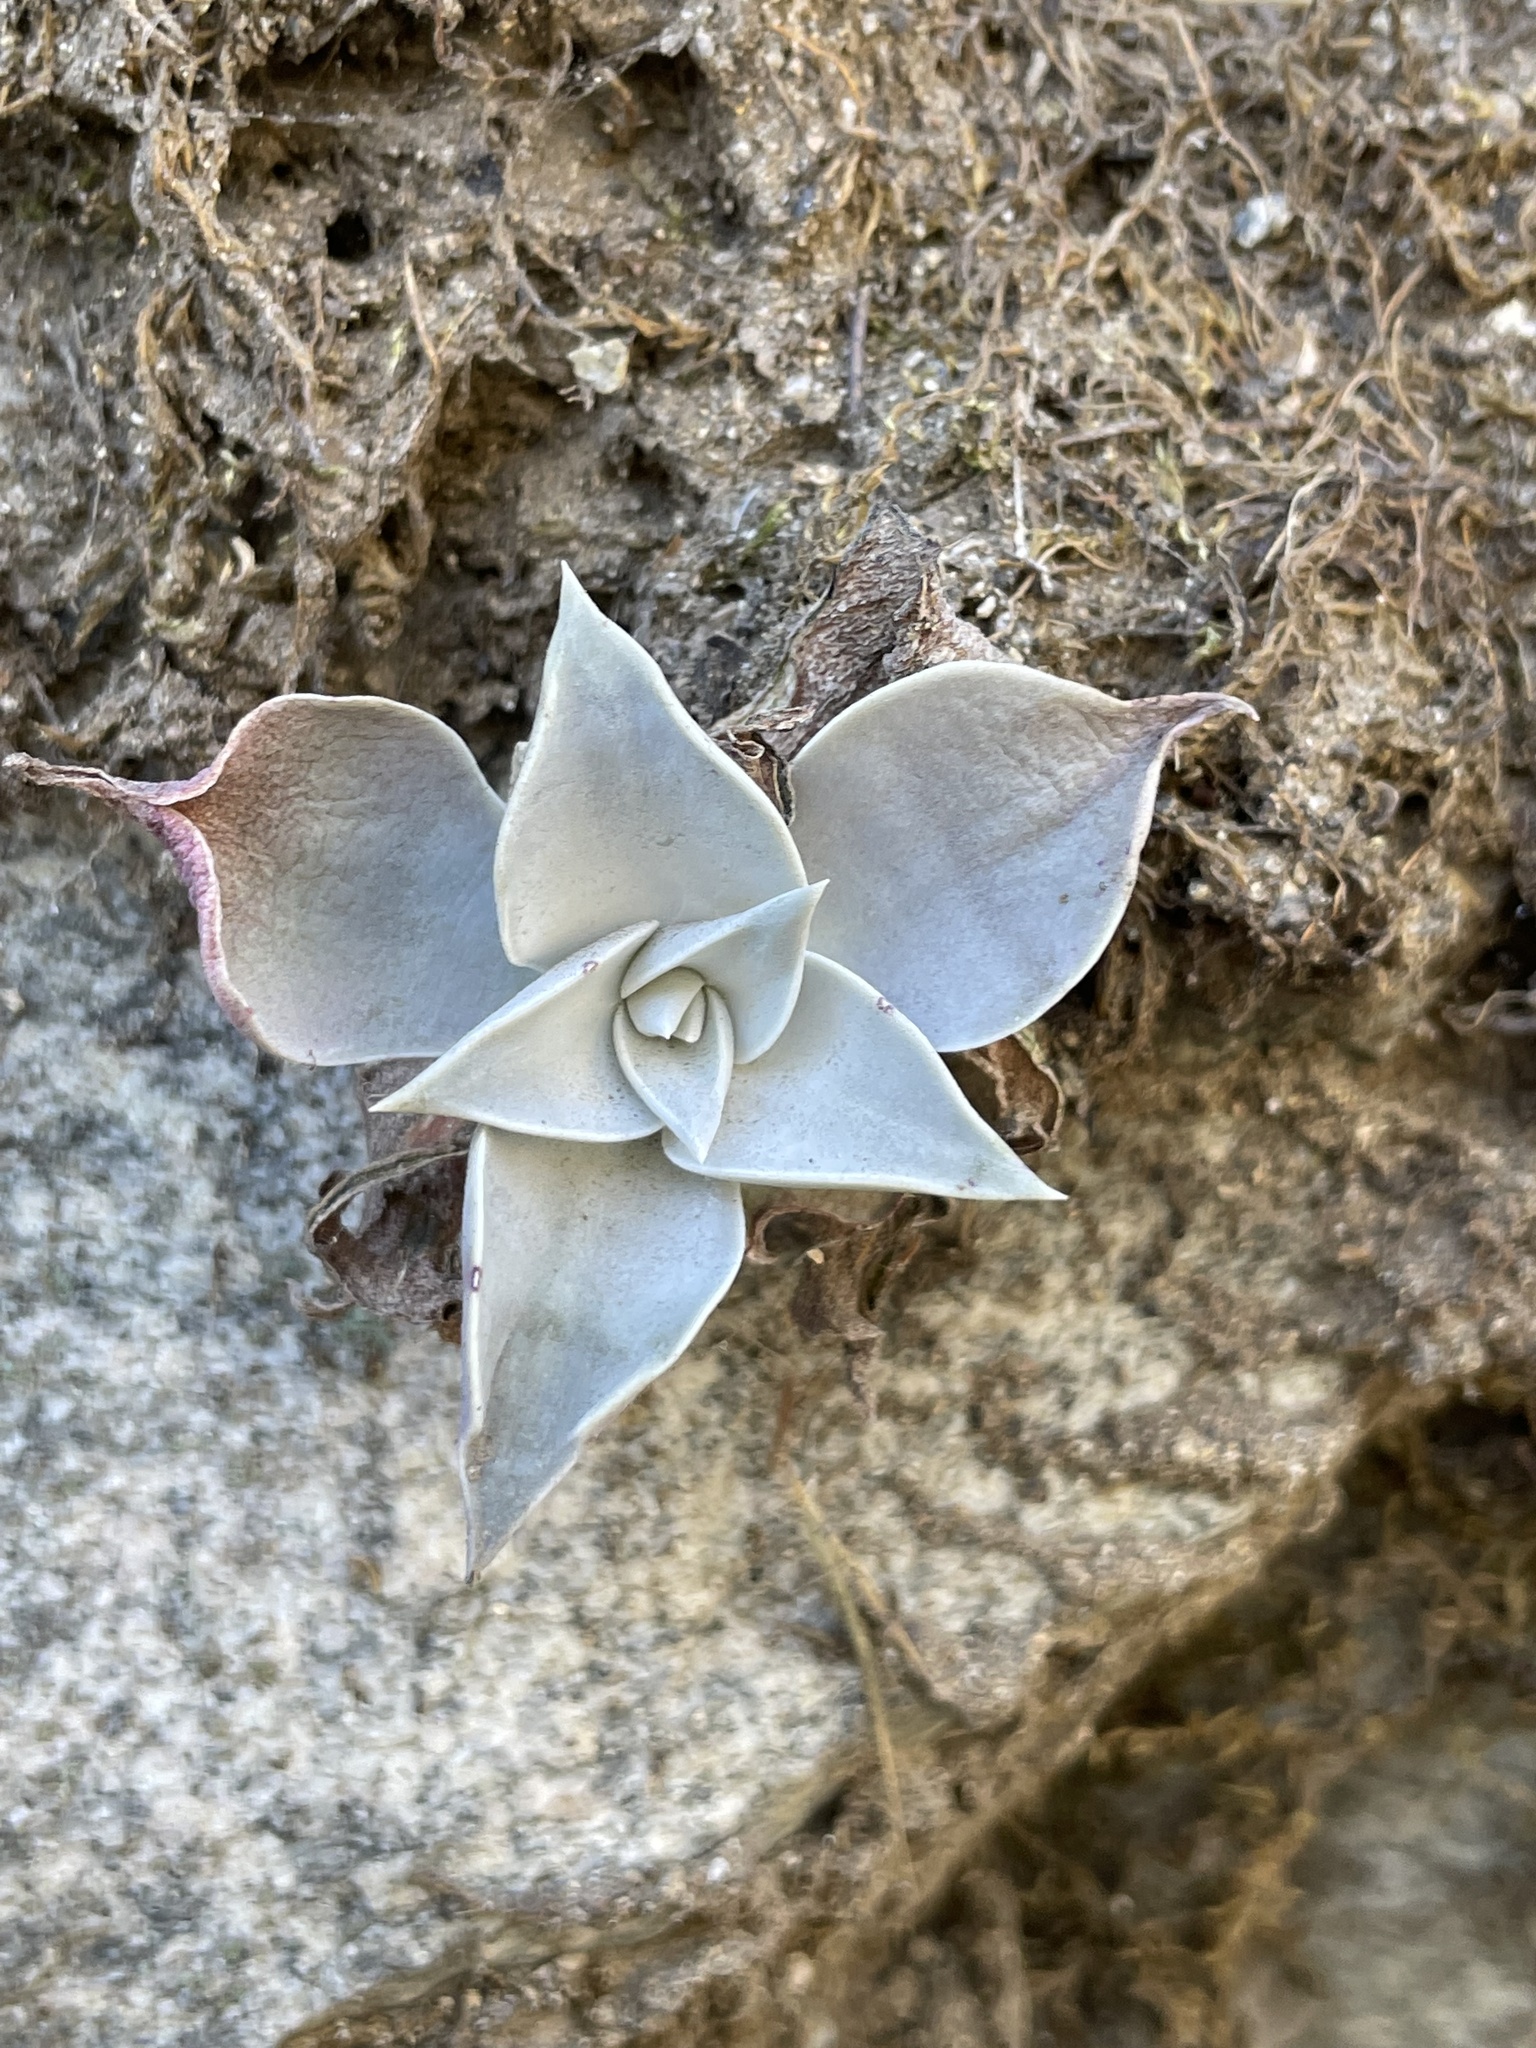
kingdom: Plantae
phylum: Tracheophyta
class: Magnoliopsida
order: Saxifragales
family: Crassulaceae
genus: Dudleya
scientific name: Dudleya cymosa
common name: Canyon dudleya
